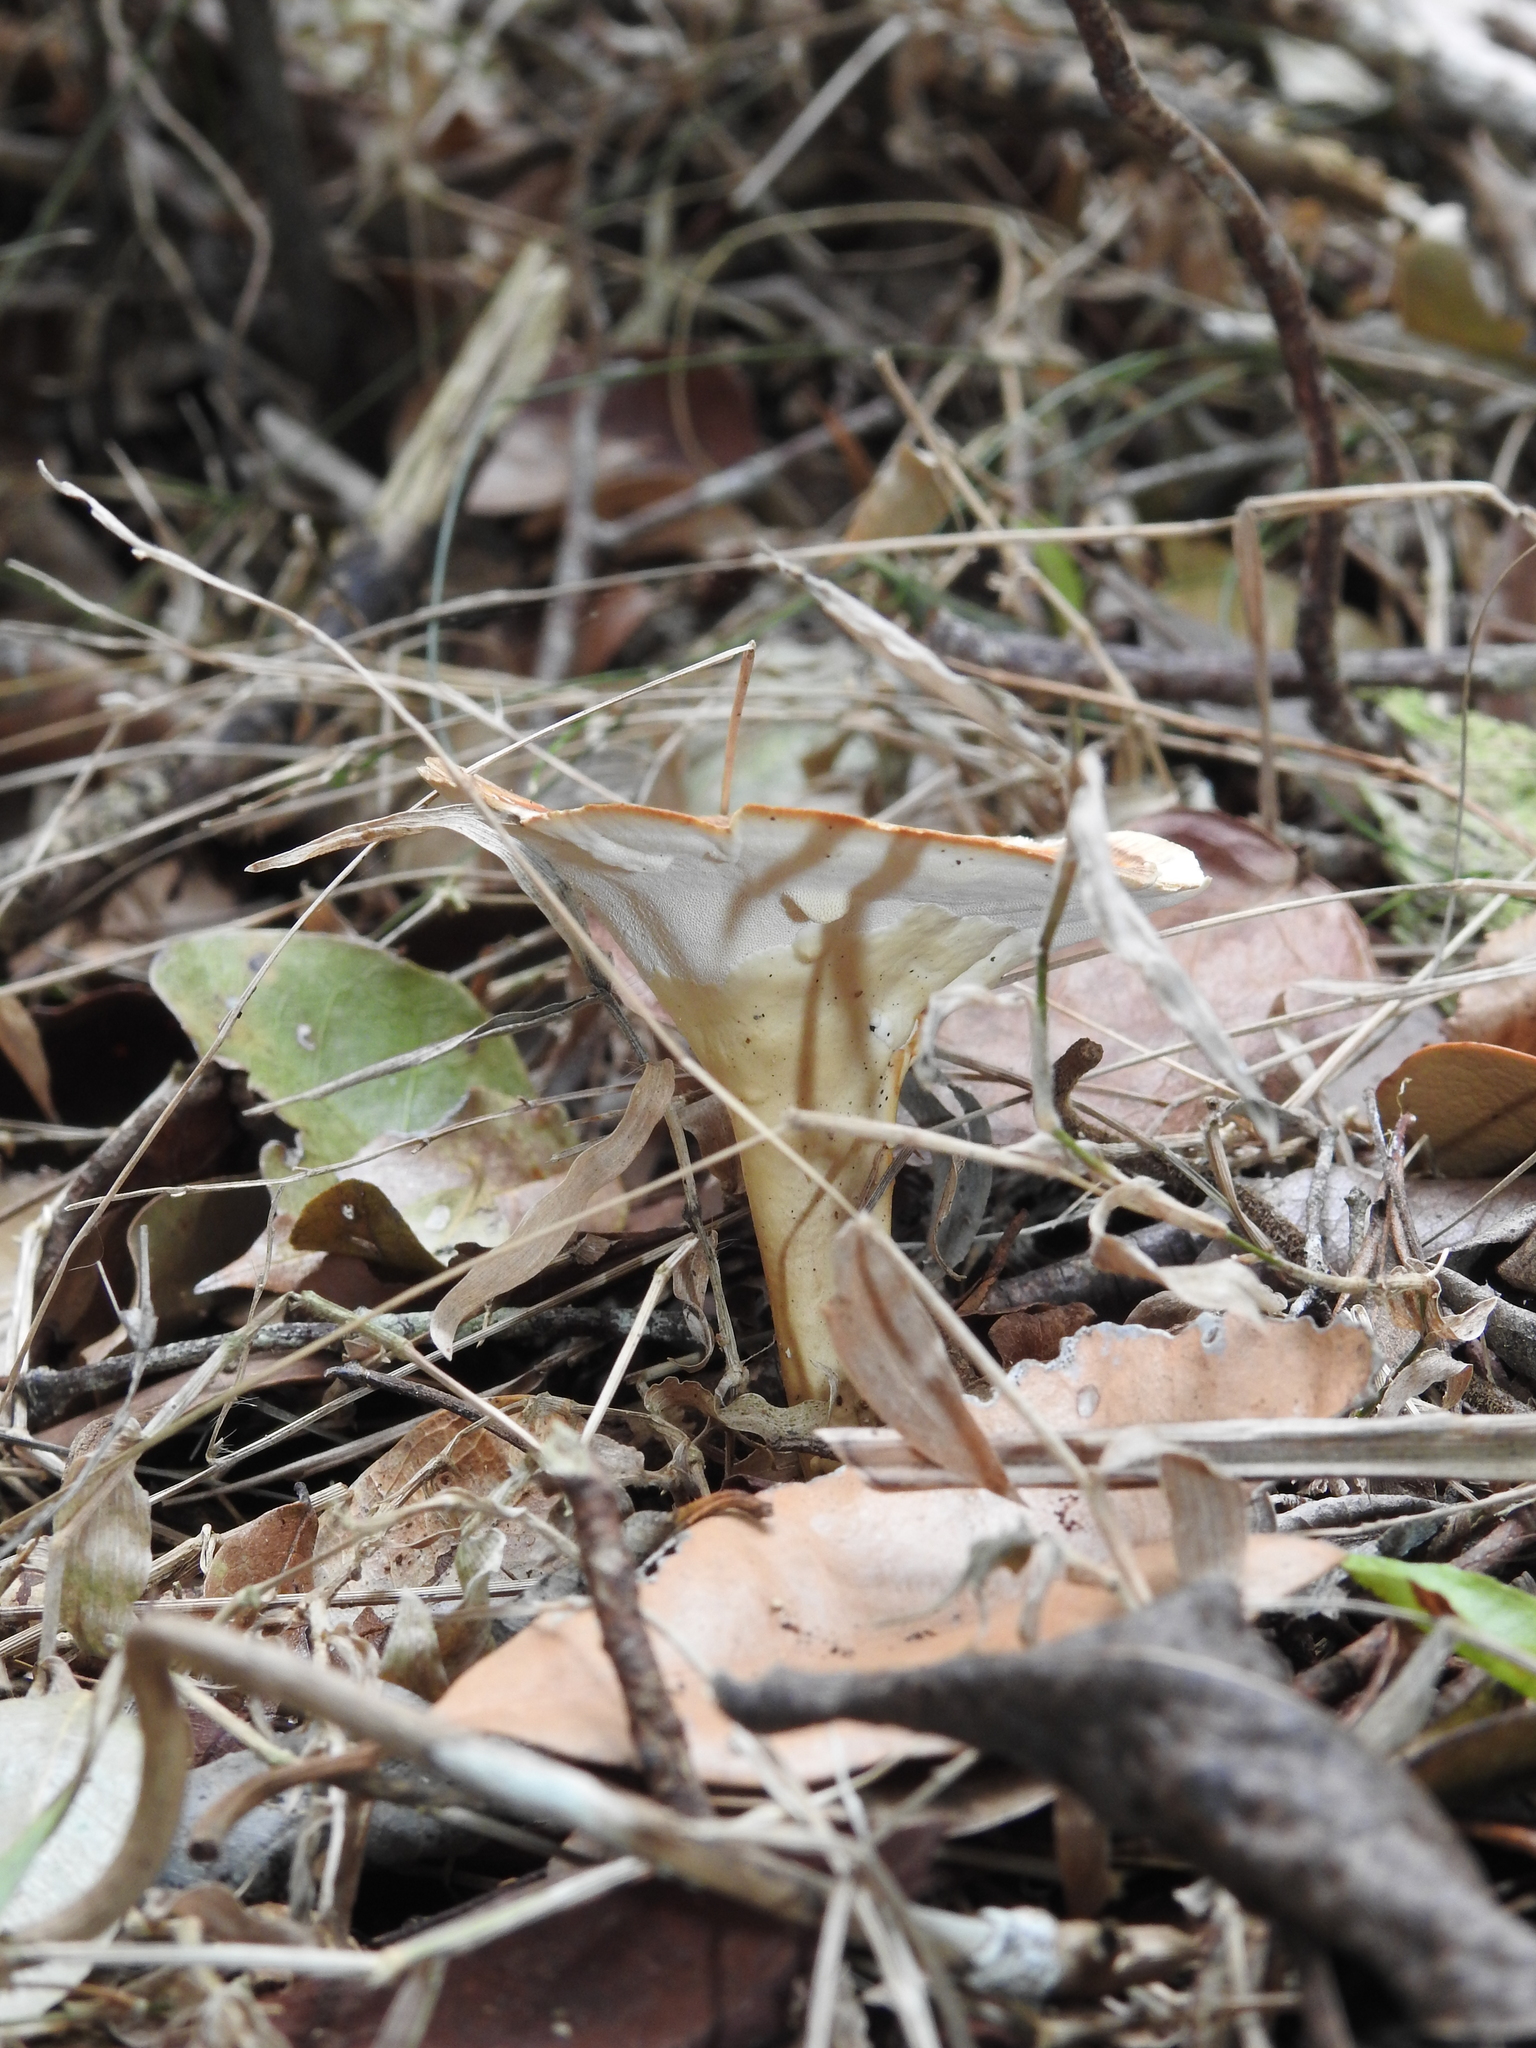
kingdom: Fungi
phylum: Basidiomycota
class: Agaricomycetes
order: Polyporales
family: Polyporaceae
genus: Microporus
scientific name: Microporus xanthopus
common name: Yellow-stemmed micropore
